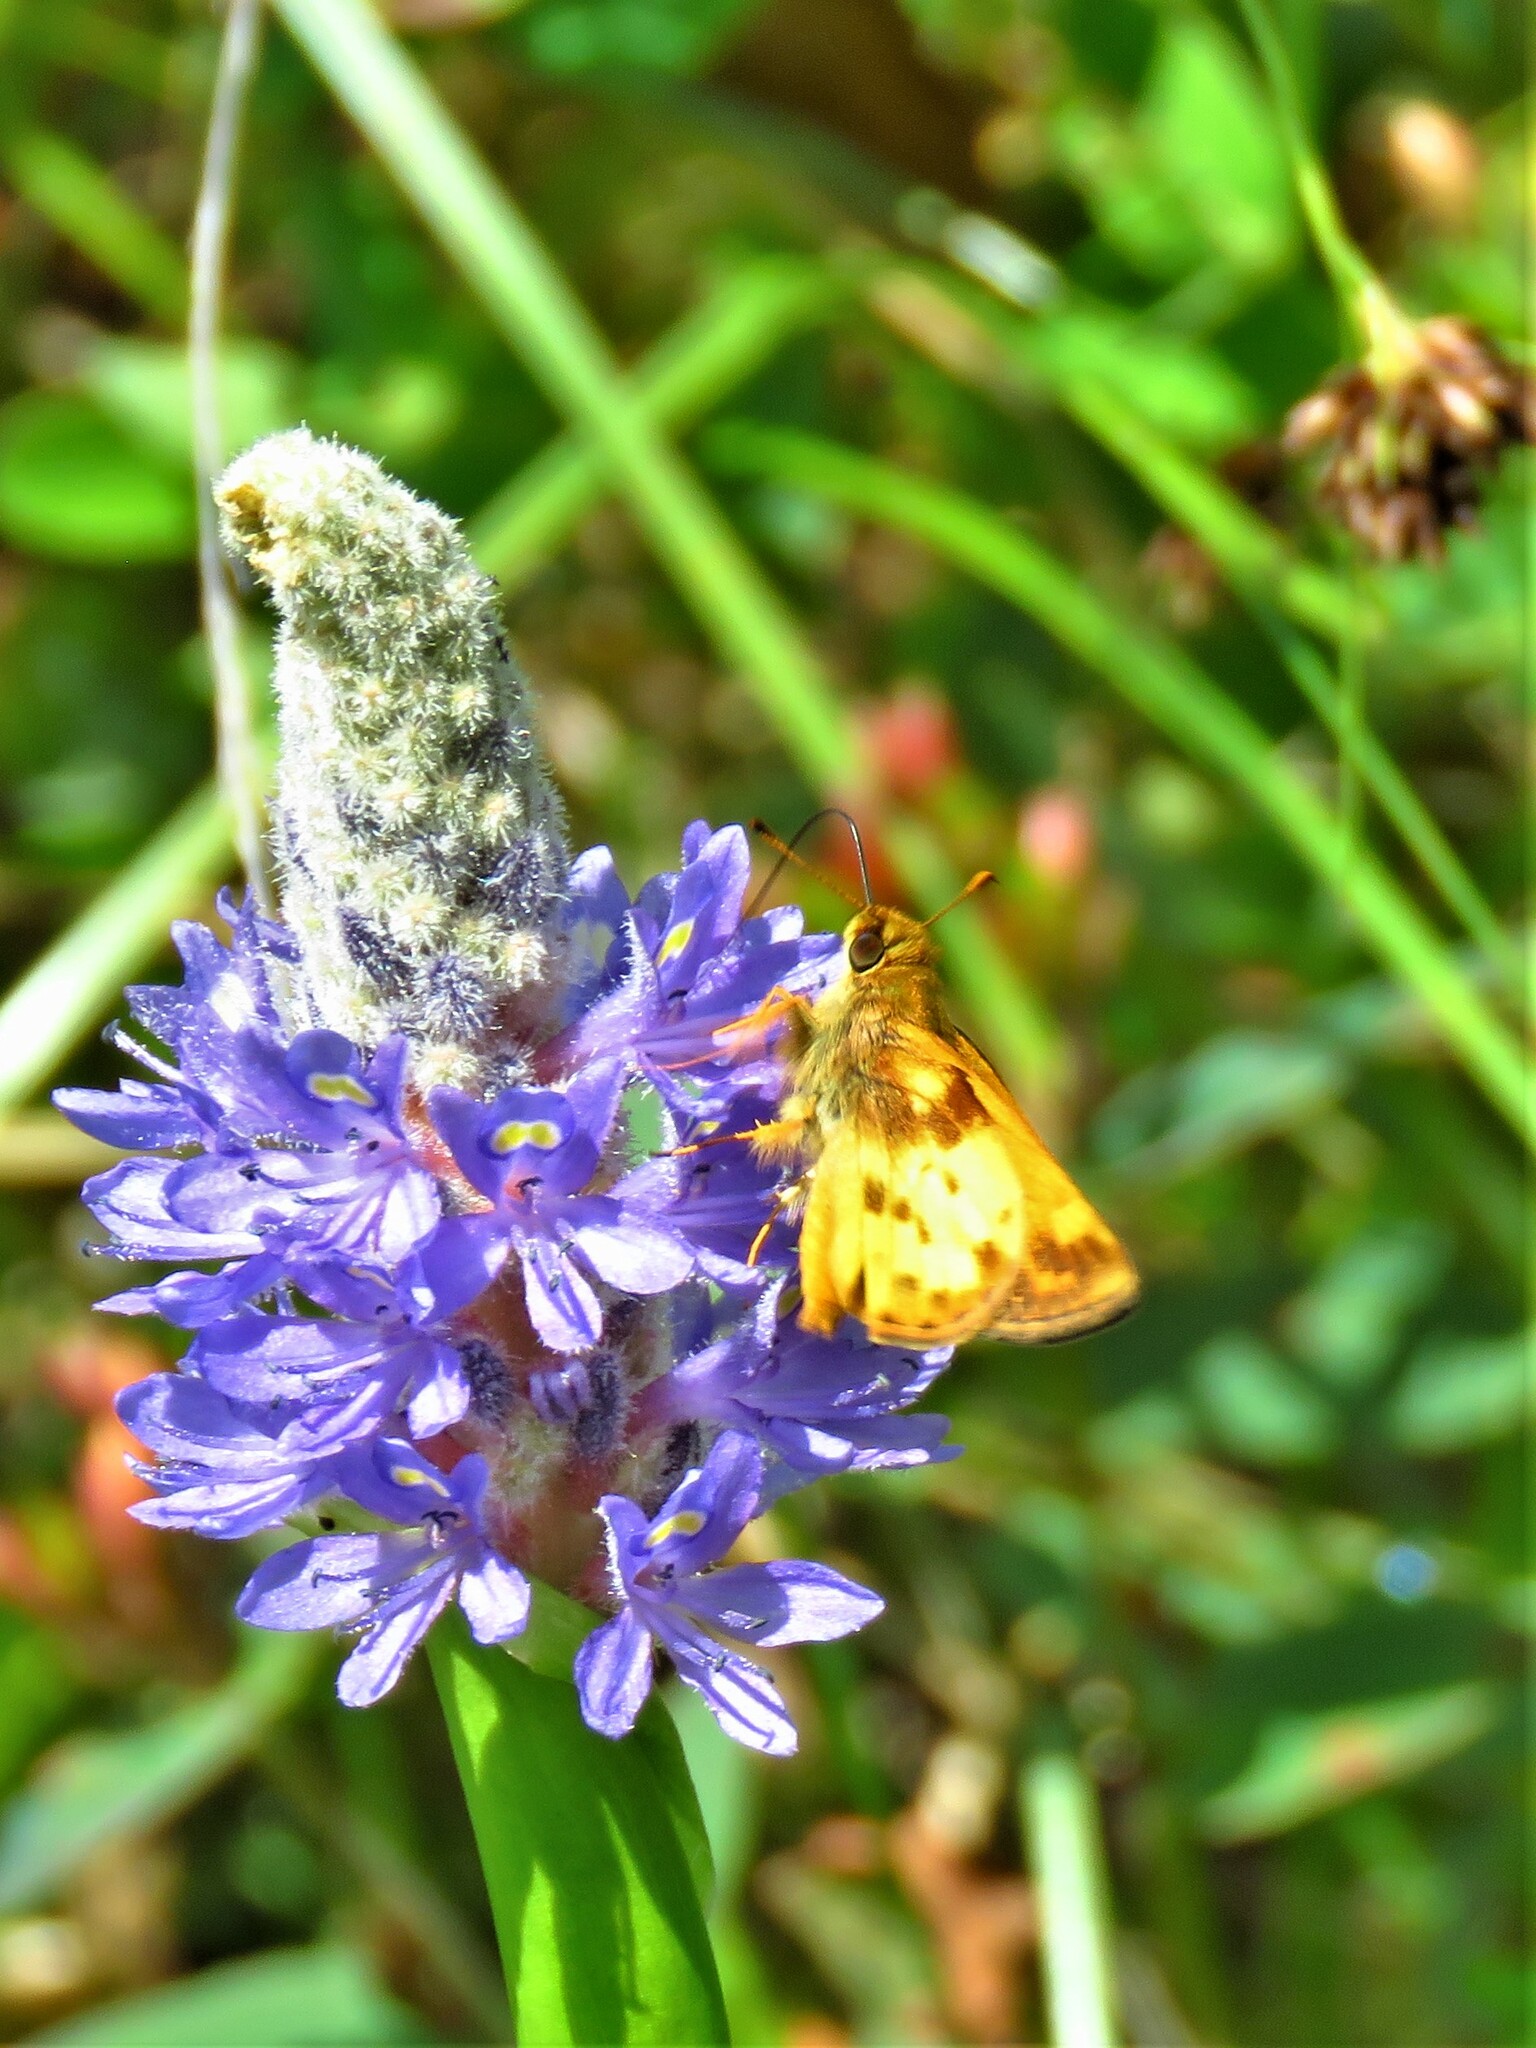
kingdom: Animalia
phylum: Arthropoda
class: Insecta
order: Lepidoptera
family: Hesperiidae
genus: Lon
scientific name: Lon zabulon
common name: Zabulon skipper
